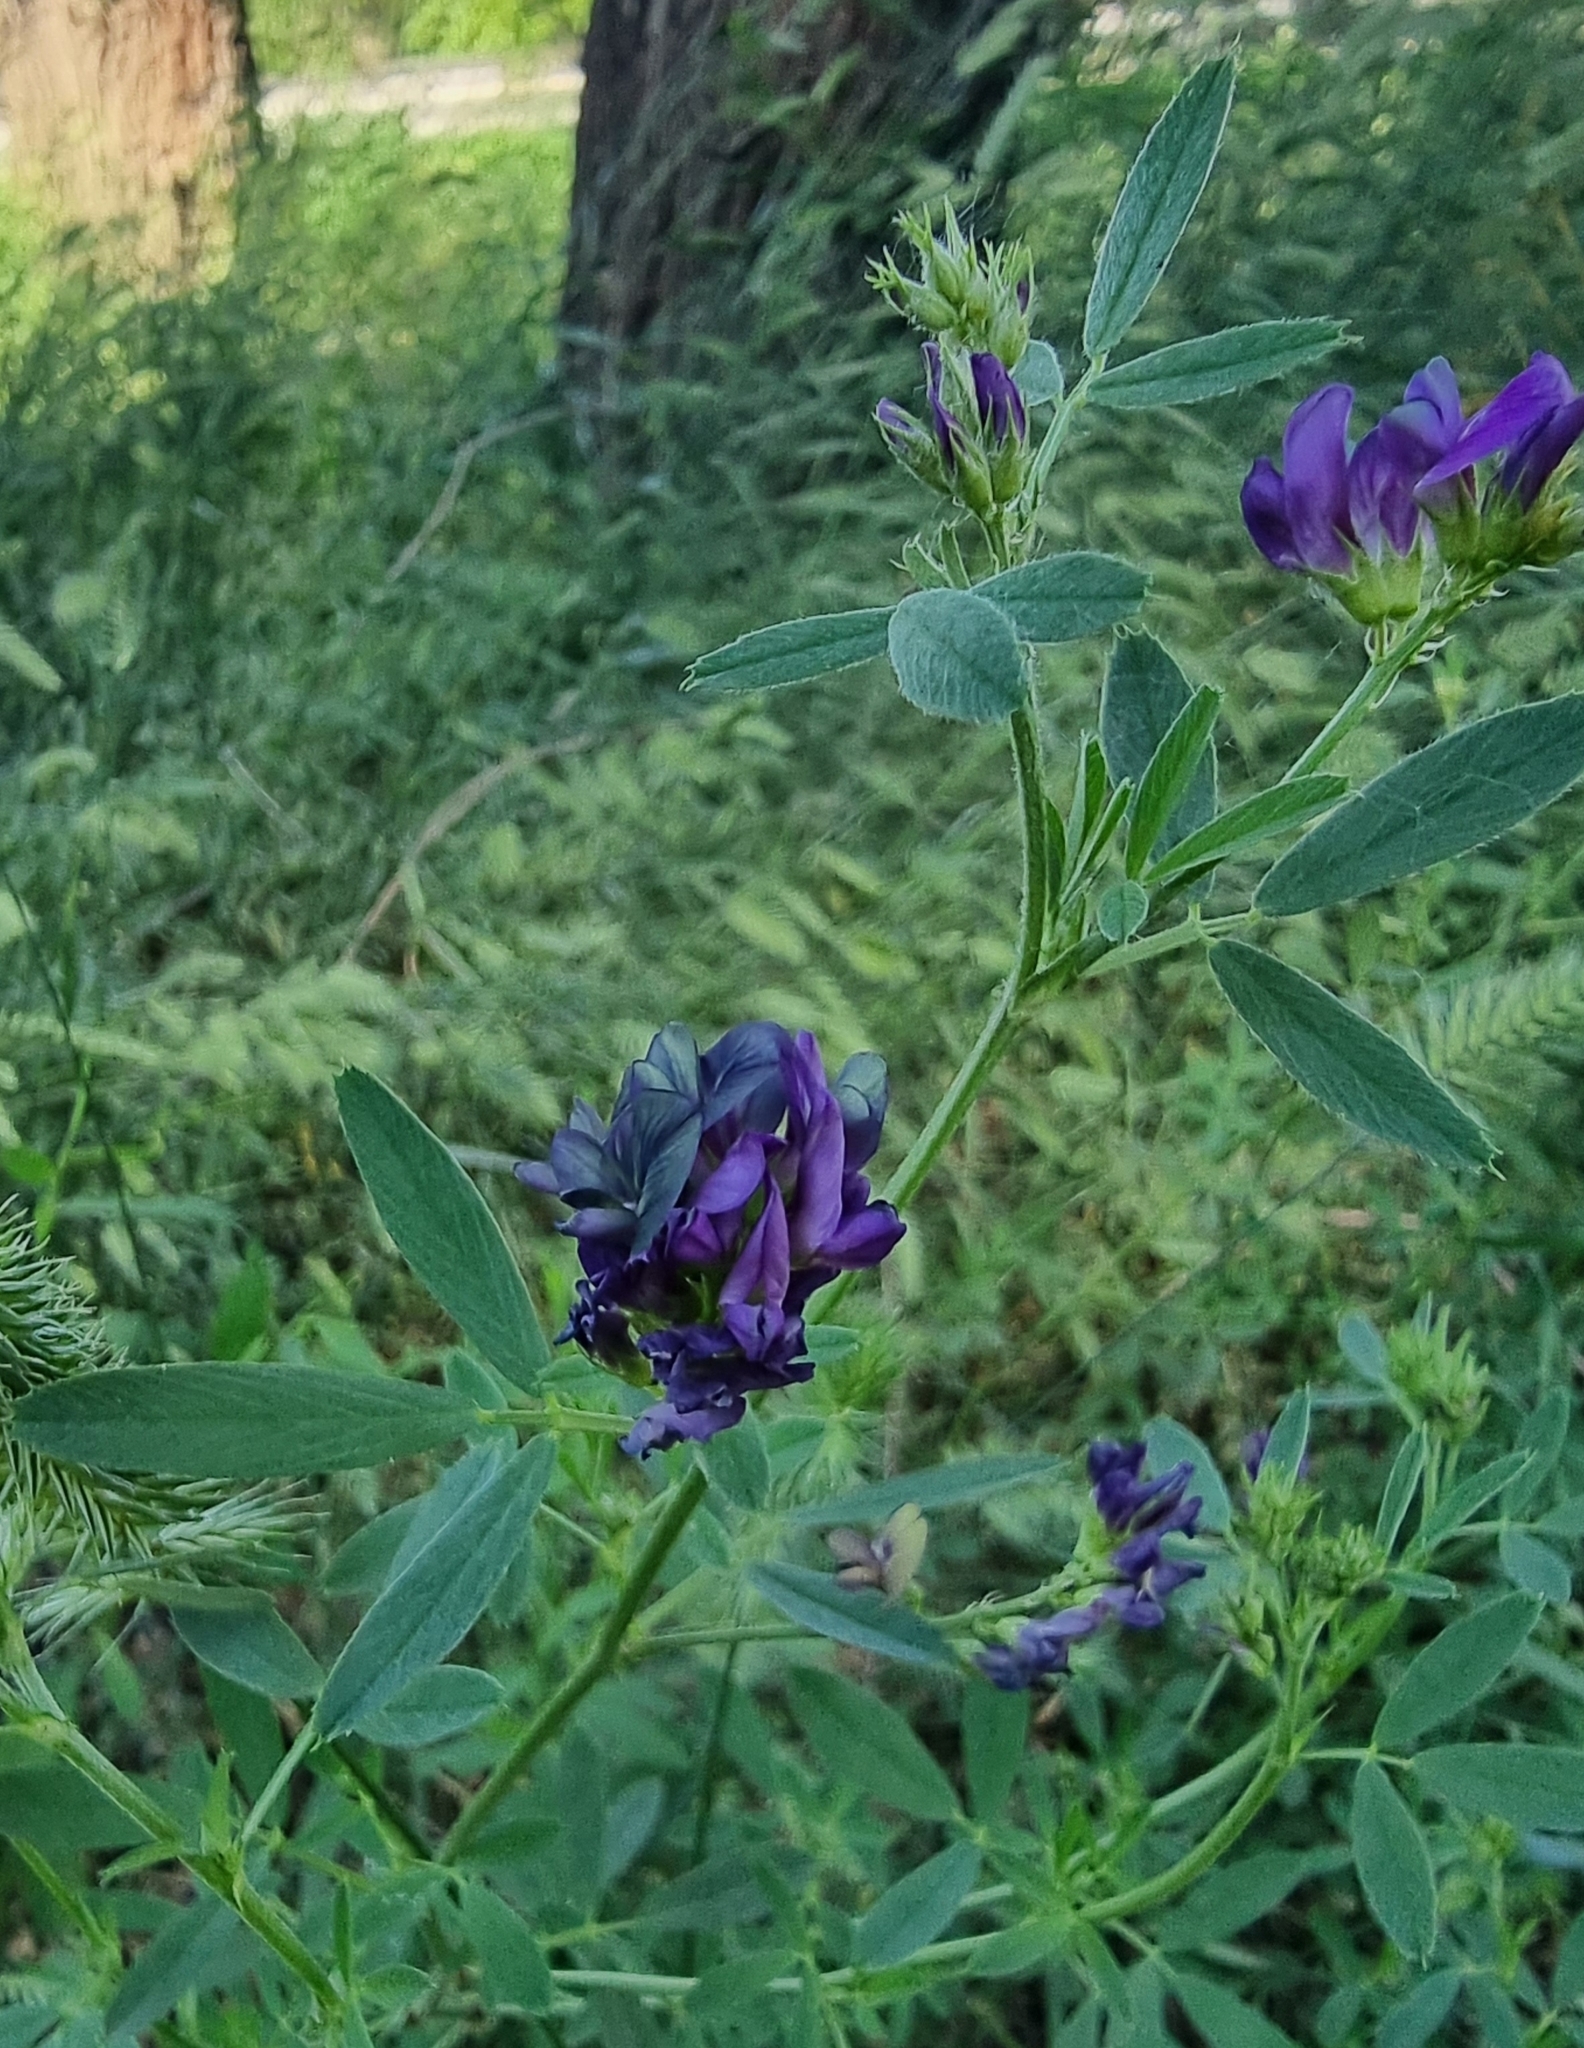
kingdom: Plantae
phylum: Tracheophyta
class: Magnoliopsida
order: Fabales
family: Fabaceae
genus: Medicago
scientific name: Medicago sativa
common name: Alfalfa
